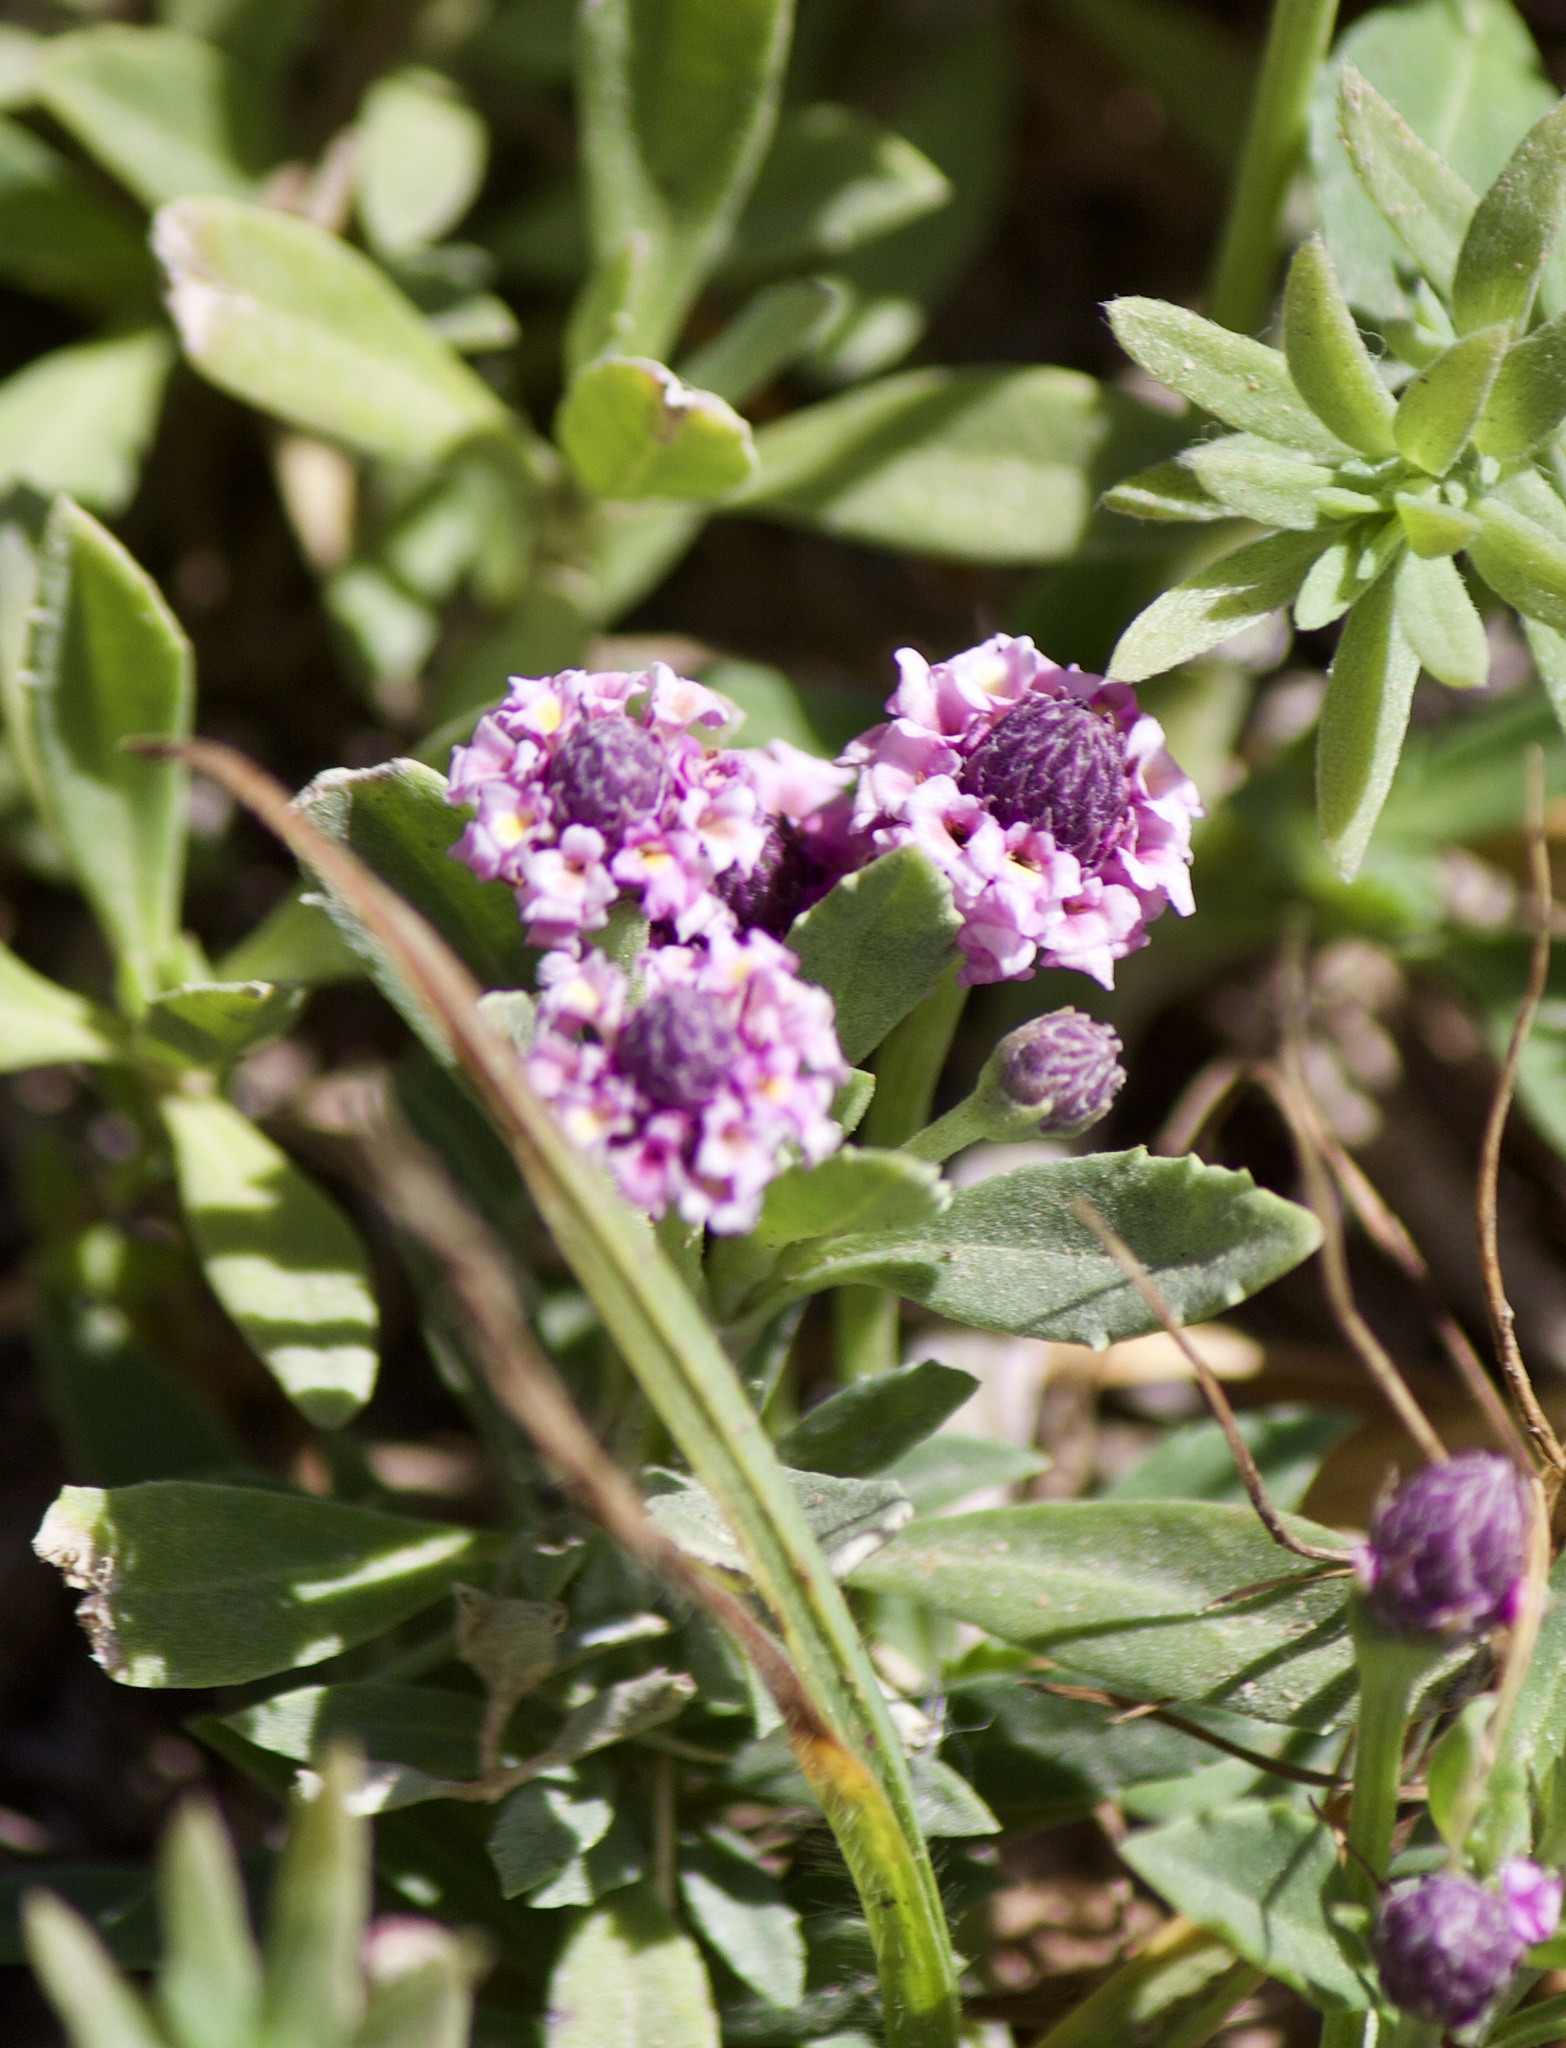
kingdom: Plantae
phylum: Tracheophyta
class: Magnoliopsida
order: Lamiales
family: Verbenaceae
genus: Phyla
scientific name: Phyla nodiflora
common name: Frogfruit
